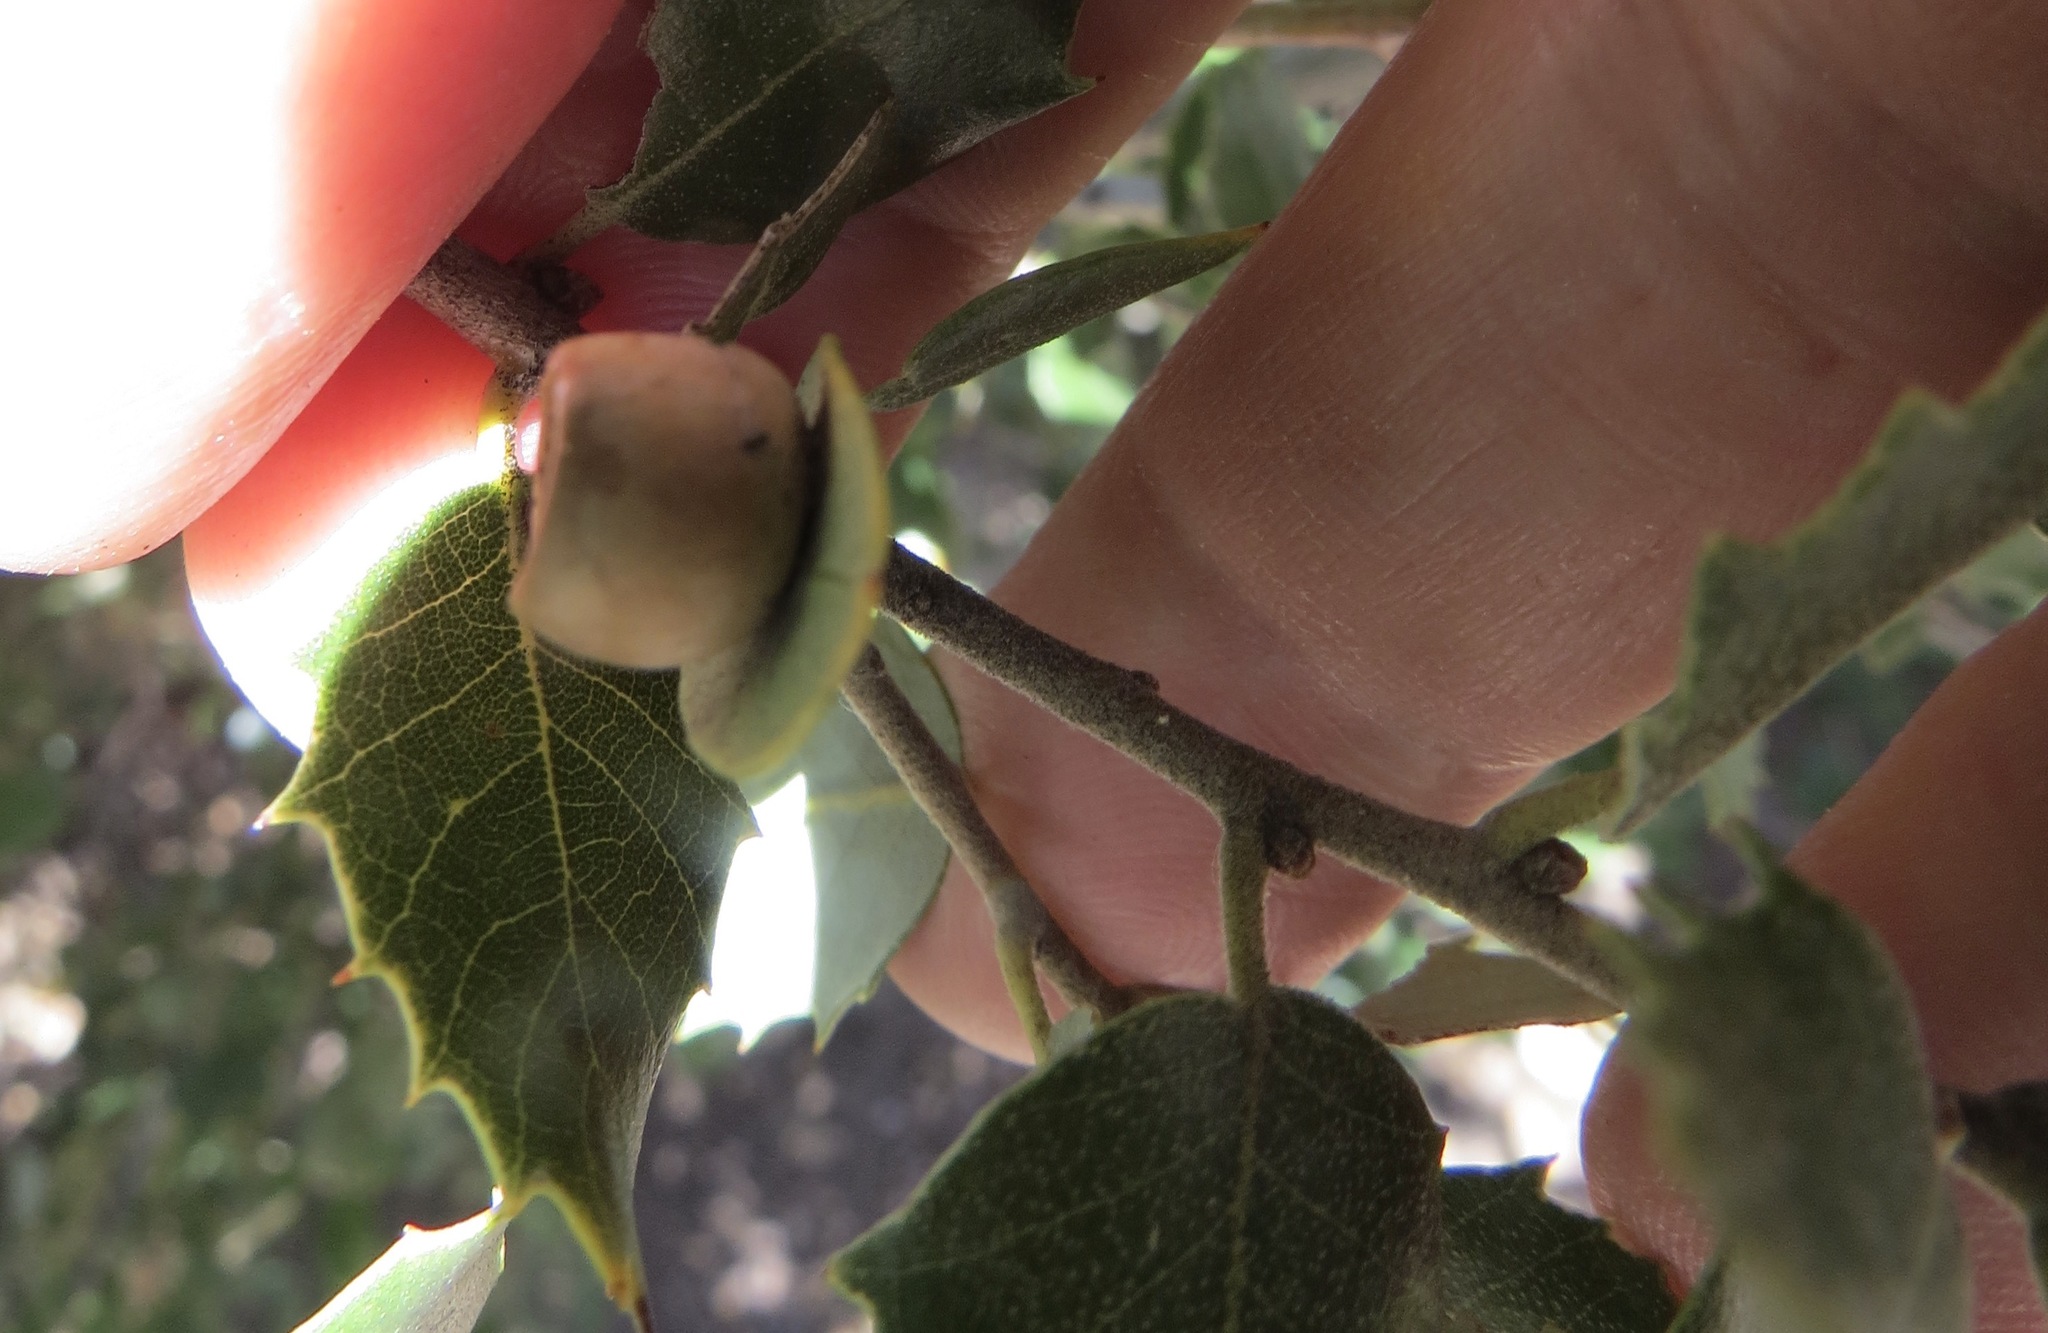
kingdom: Animalia
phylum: Arthropoda
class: Insecta
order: Hymenoptera
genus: Paracraspis
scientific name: Paracraspis
